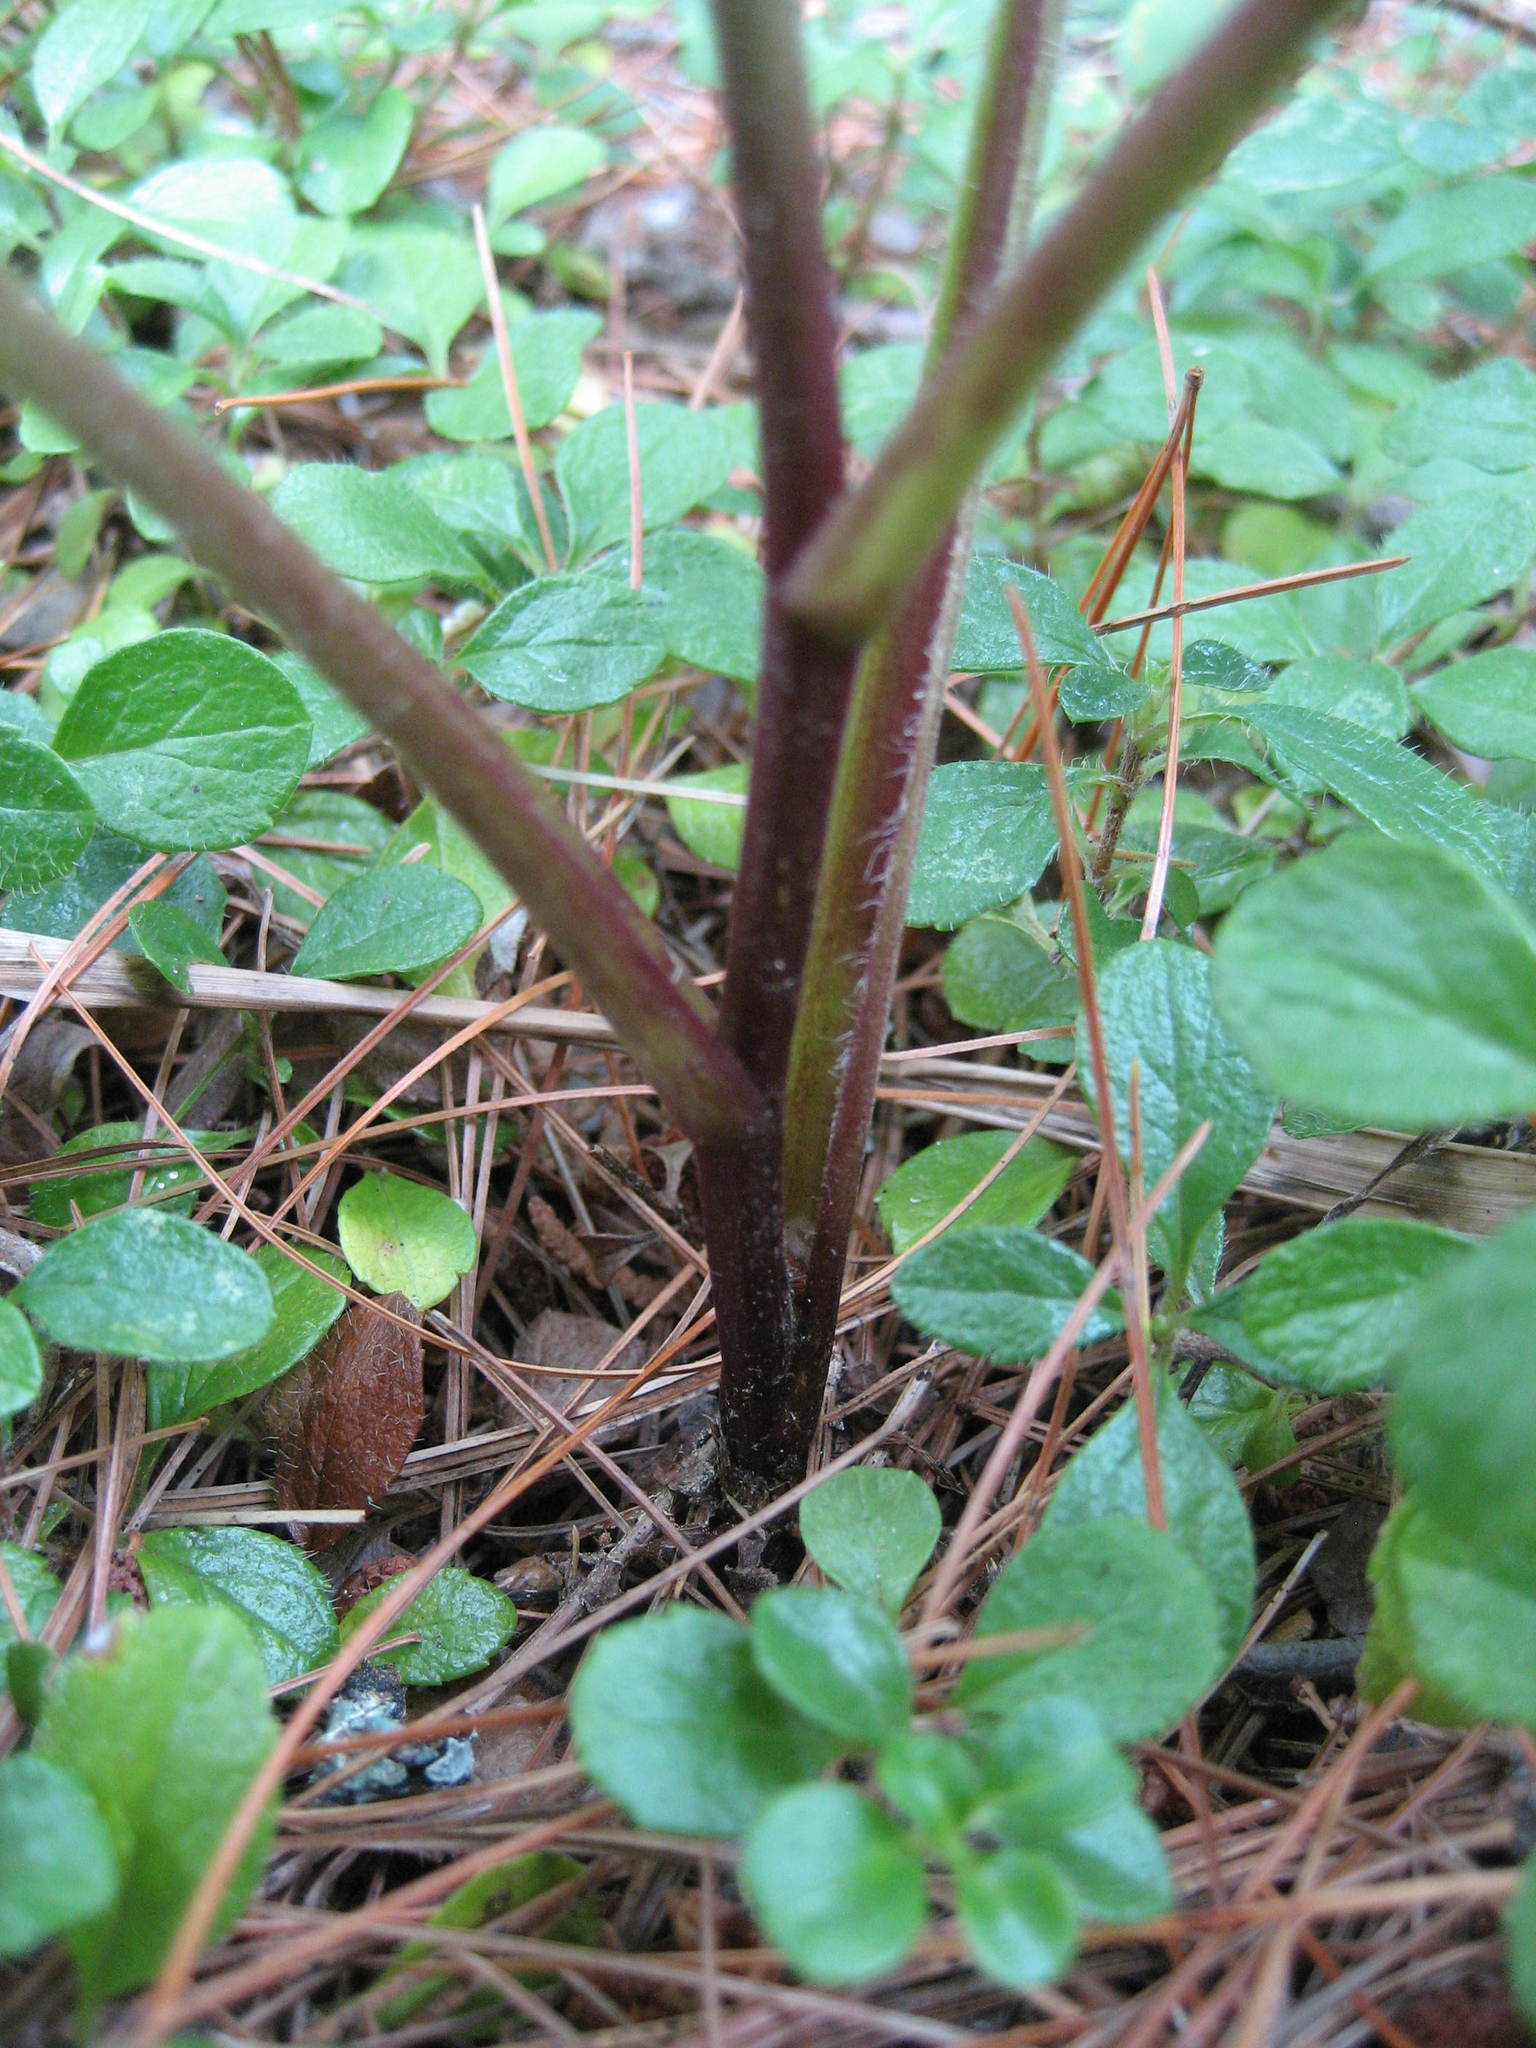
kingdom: Plantae
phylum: Tracheophyta
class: Magnoliopsida
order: Asterales
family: Asteraceae
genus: Eurybia
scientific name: Eurybia macrophylla
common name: Big-leaved aster
